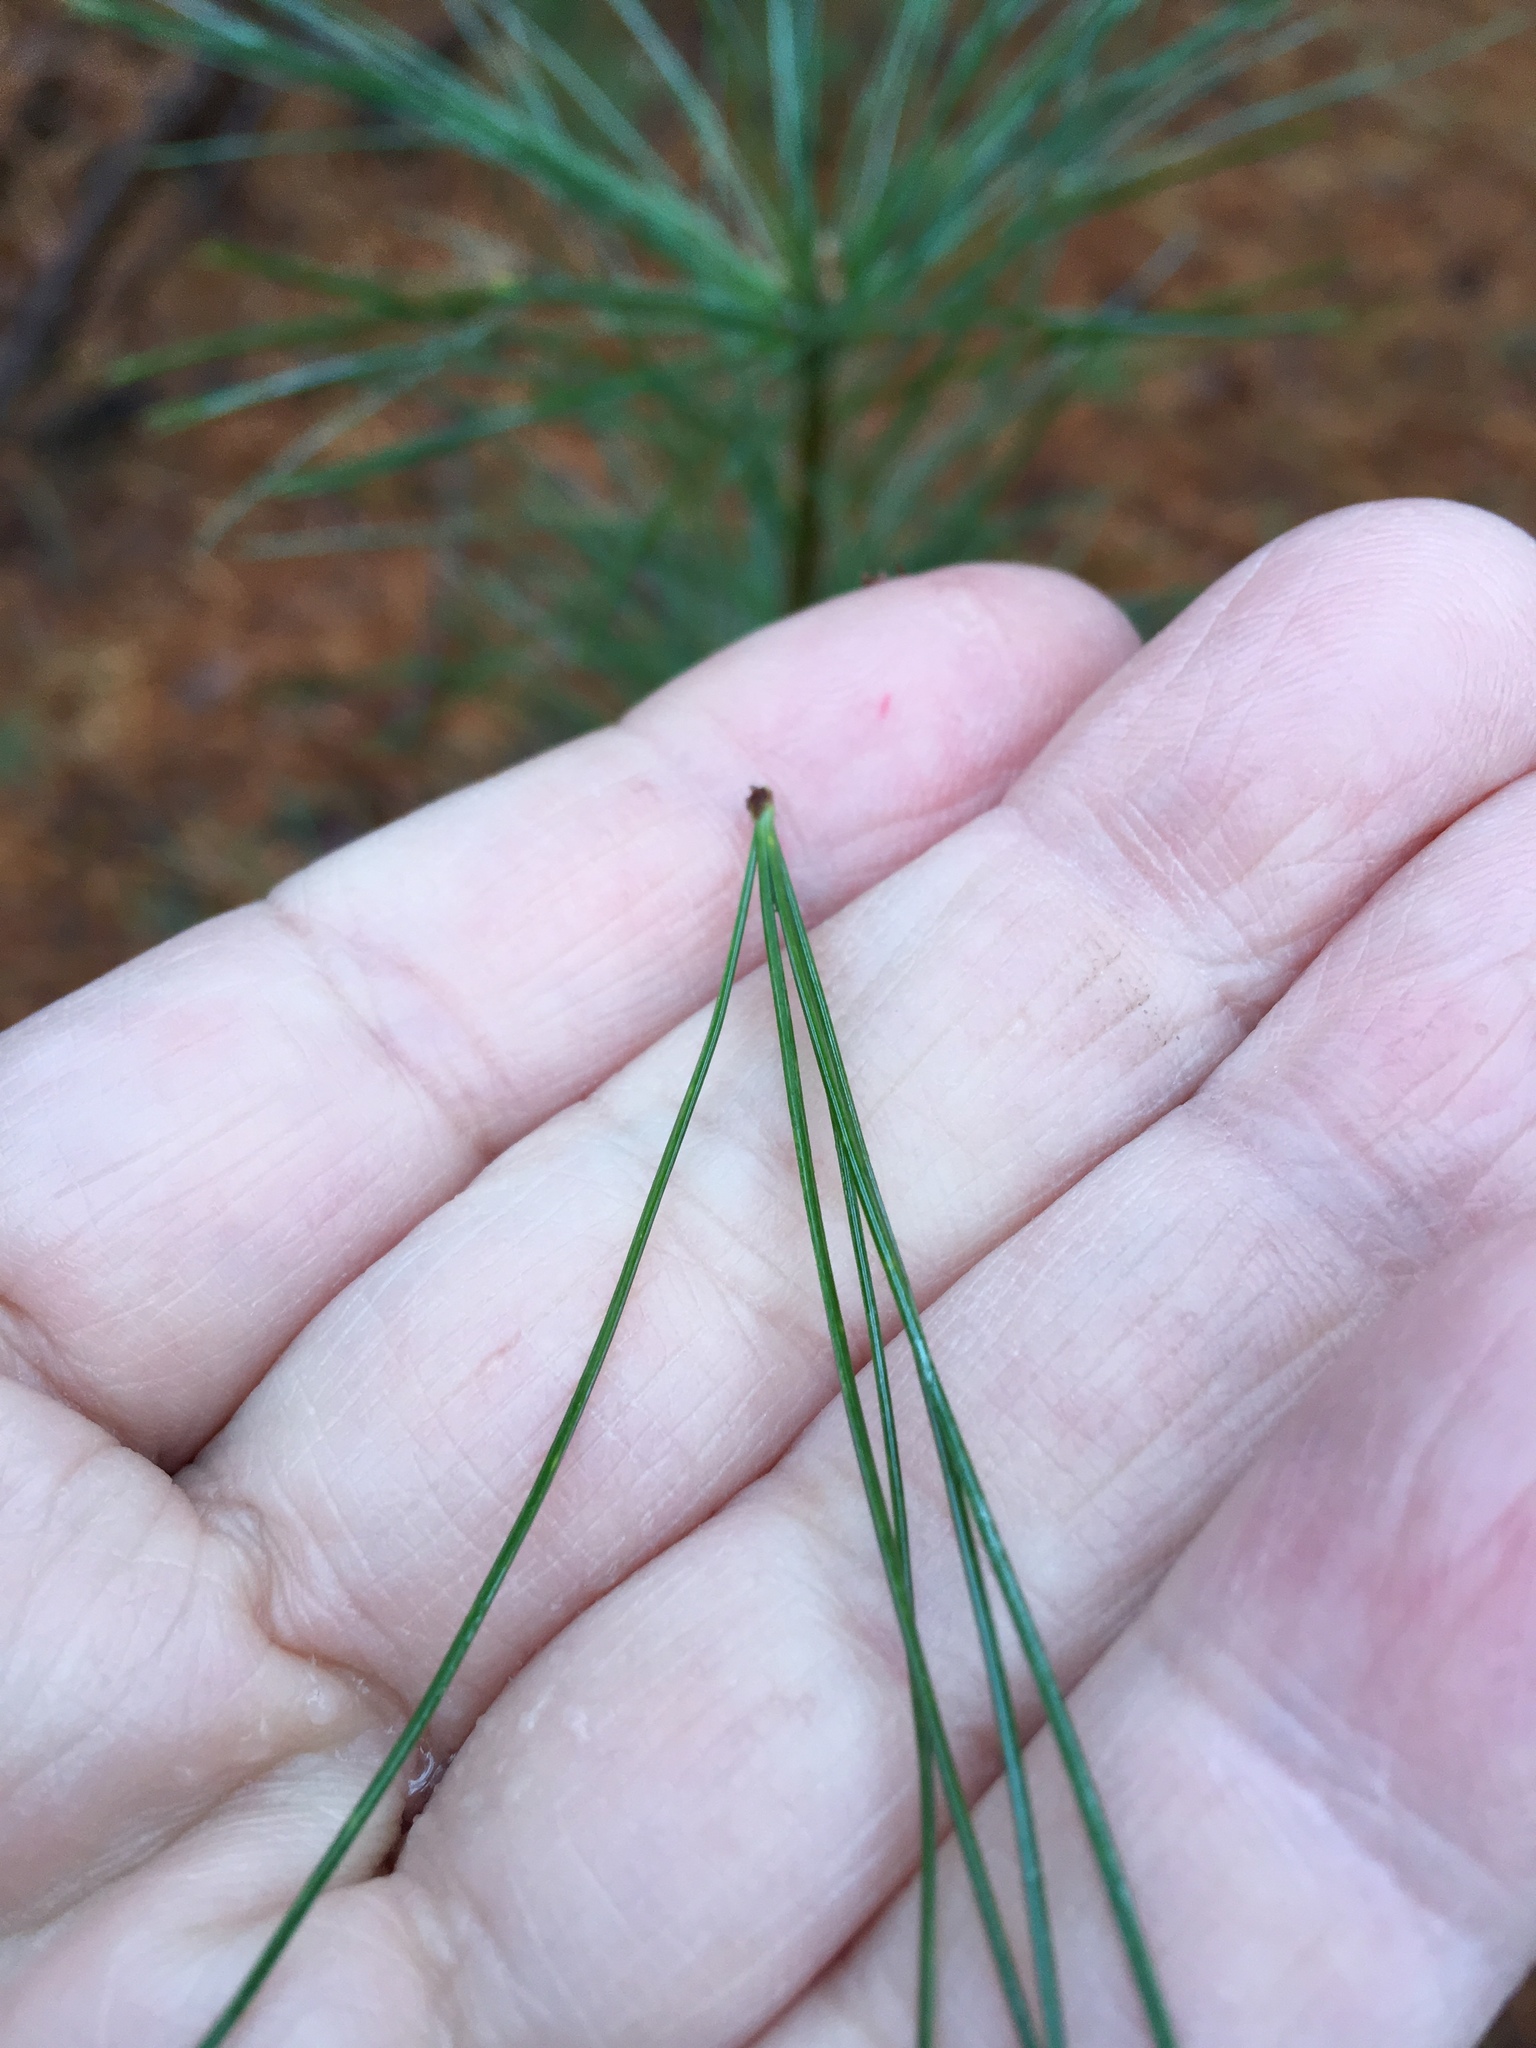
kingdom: Plantae
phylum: Tracheophyta
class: Pinopsida
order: Pinales
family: Pinaceae
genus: Pinus
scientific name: Pinus strobus
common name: Weymouth pine
